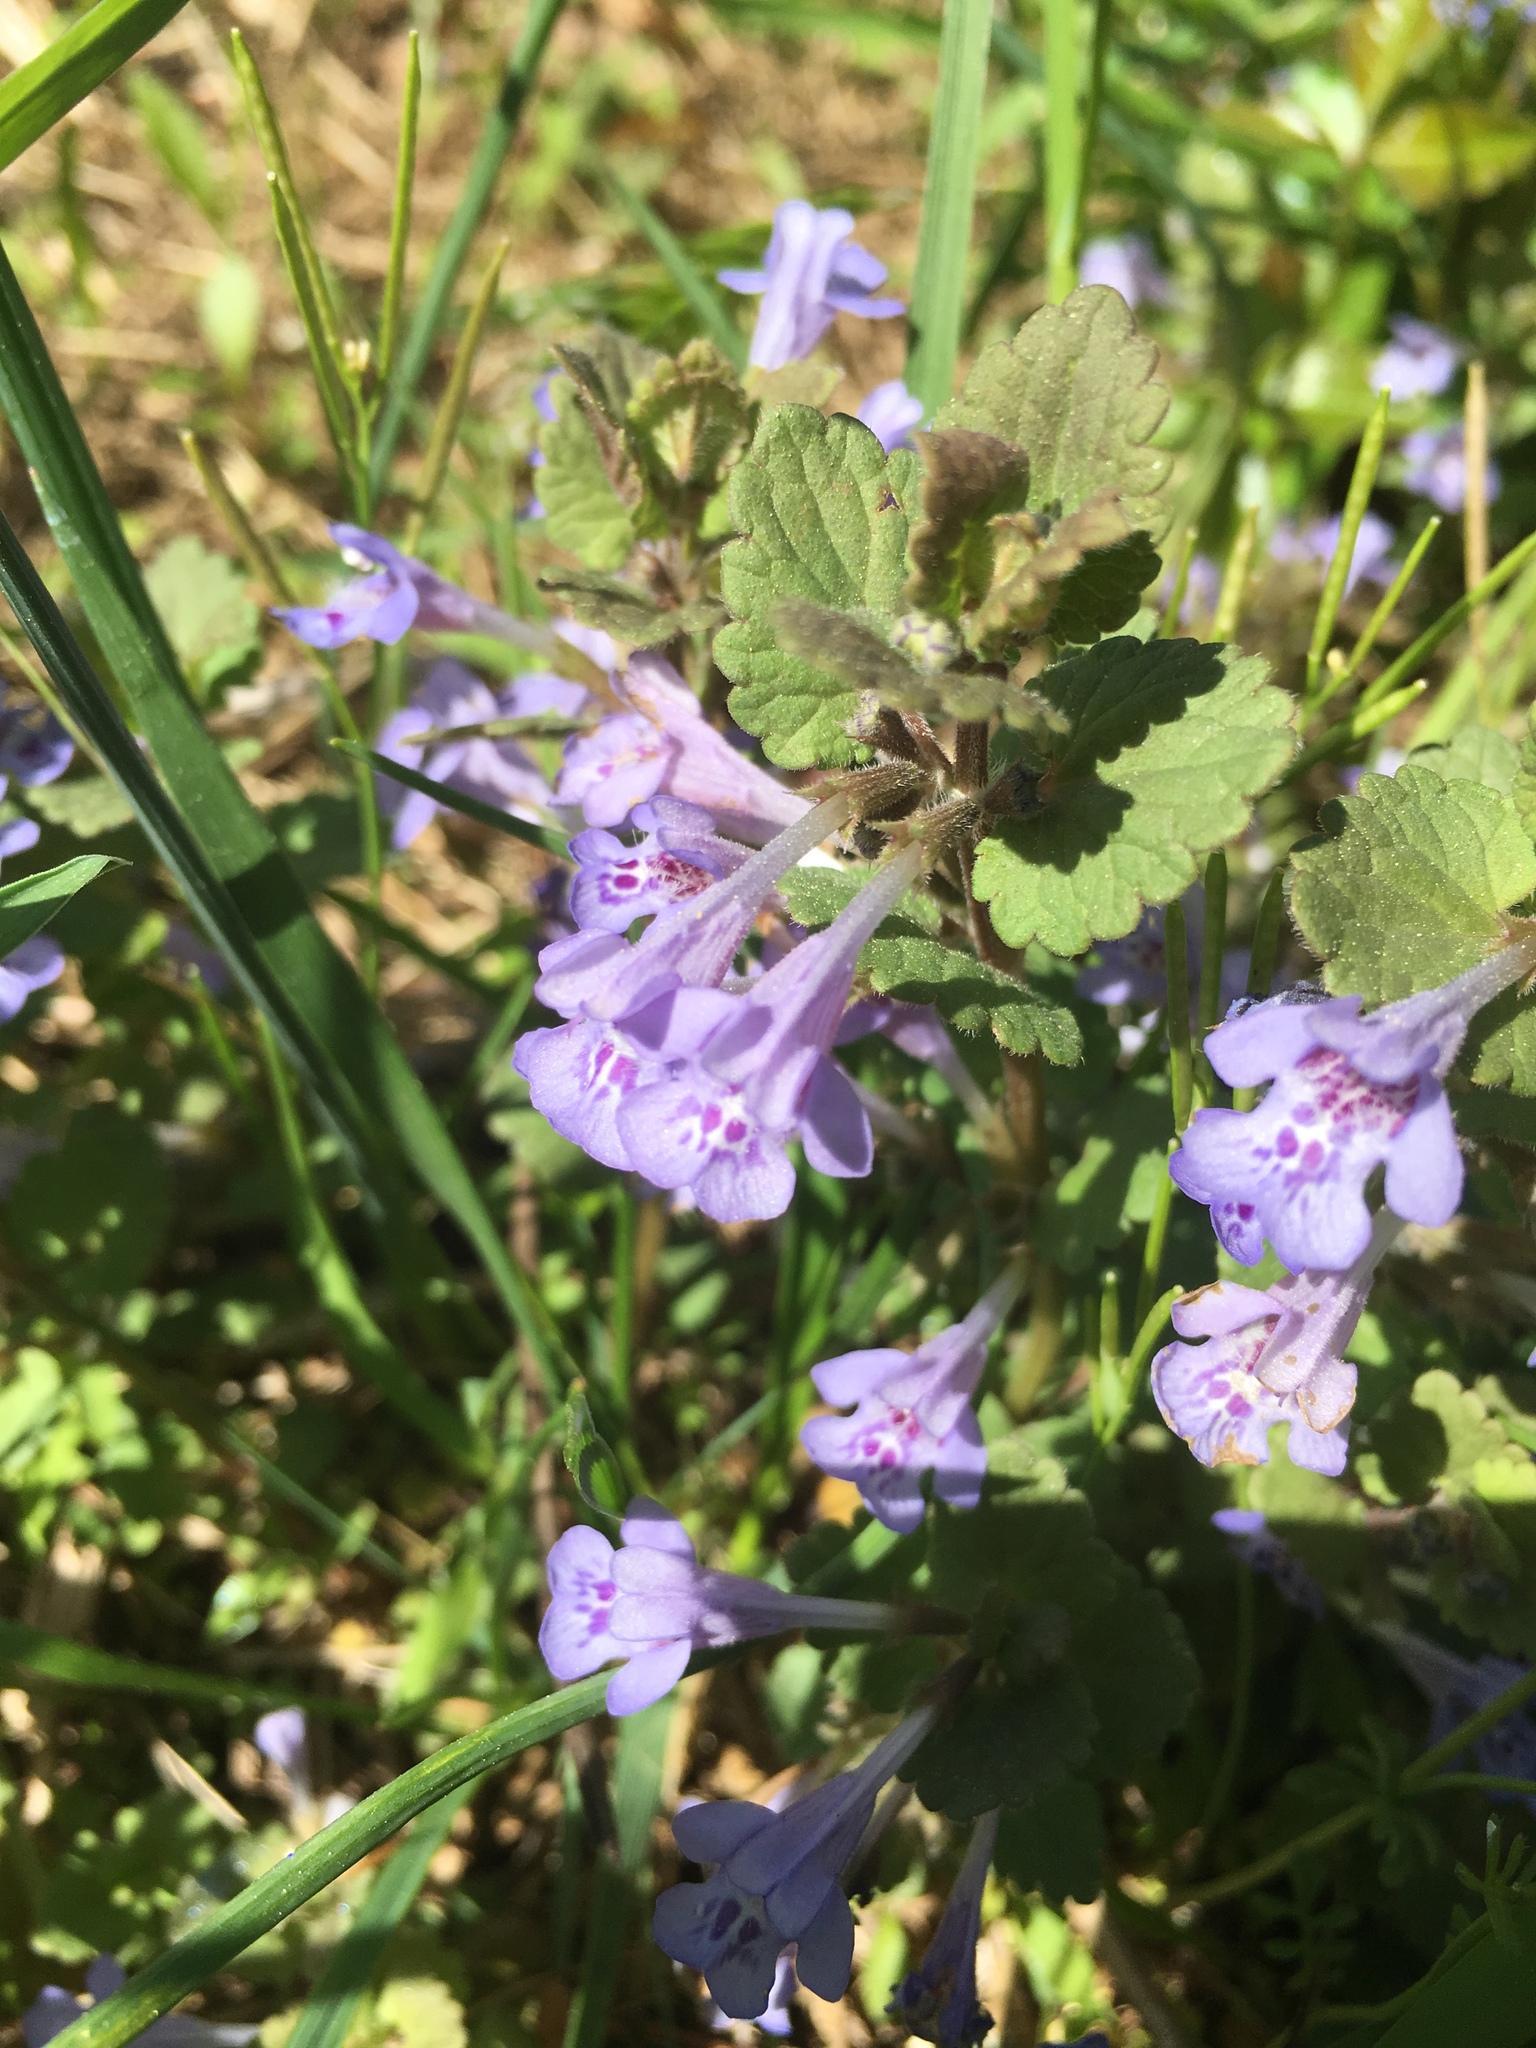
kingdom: Plantae
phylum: Tracheophyta
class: Magnoliopsida
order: Lamiales
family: Lamiaceae
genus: Glechoma
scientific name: Glechoma hederacea
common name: Ground ivy
